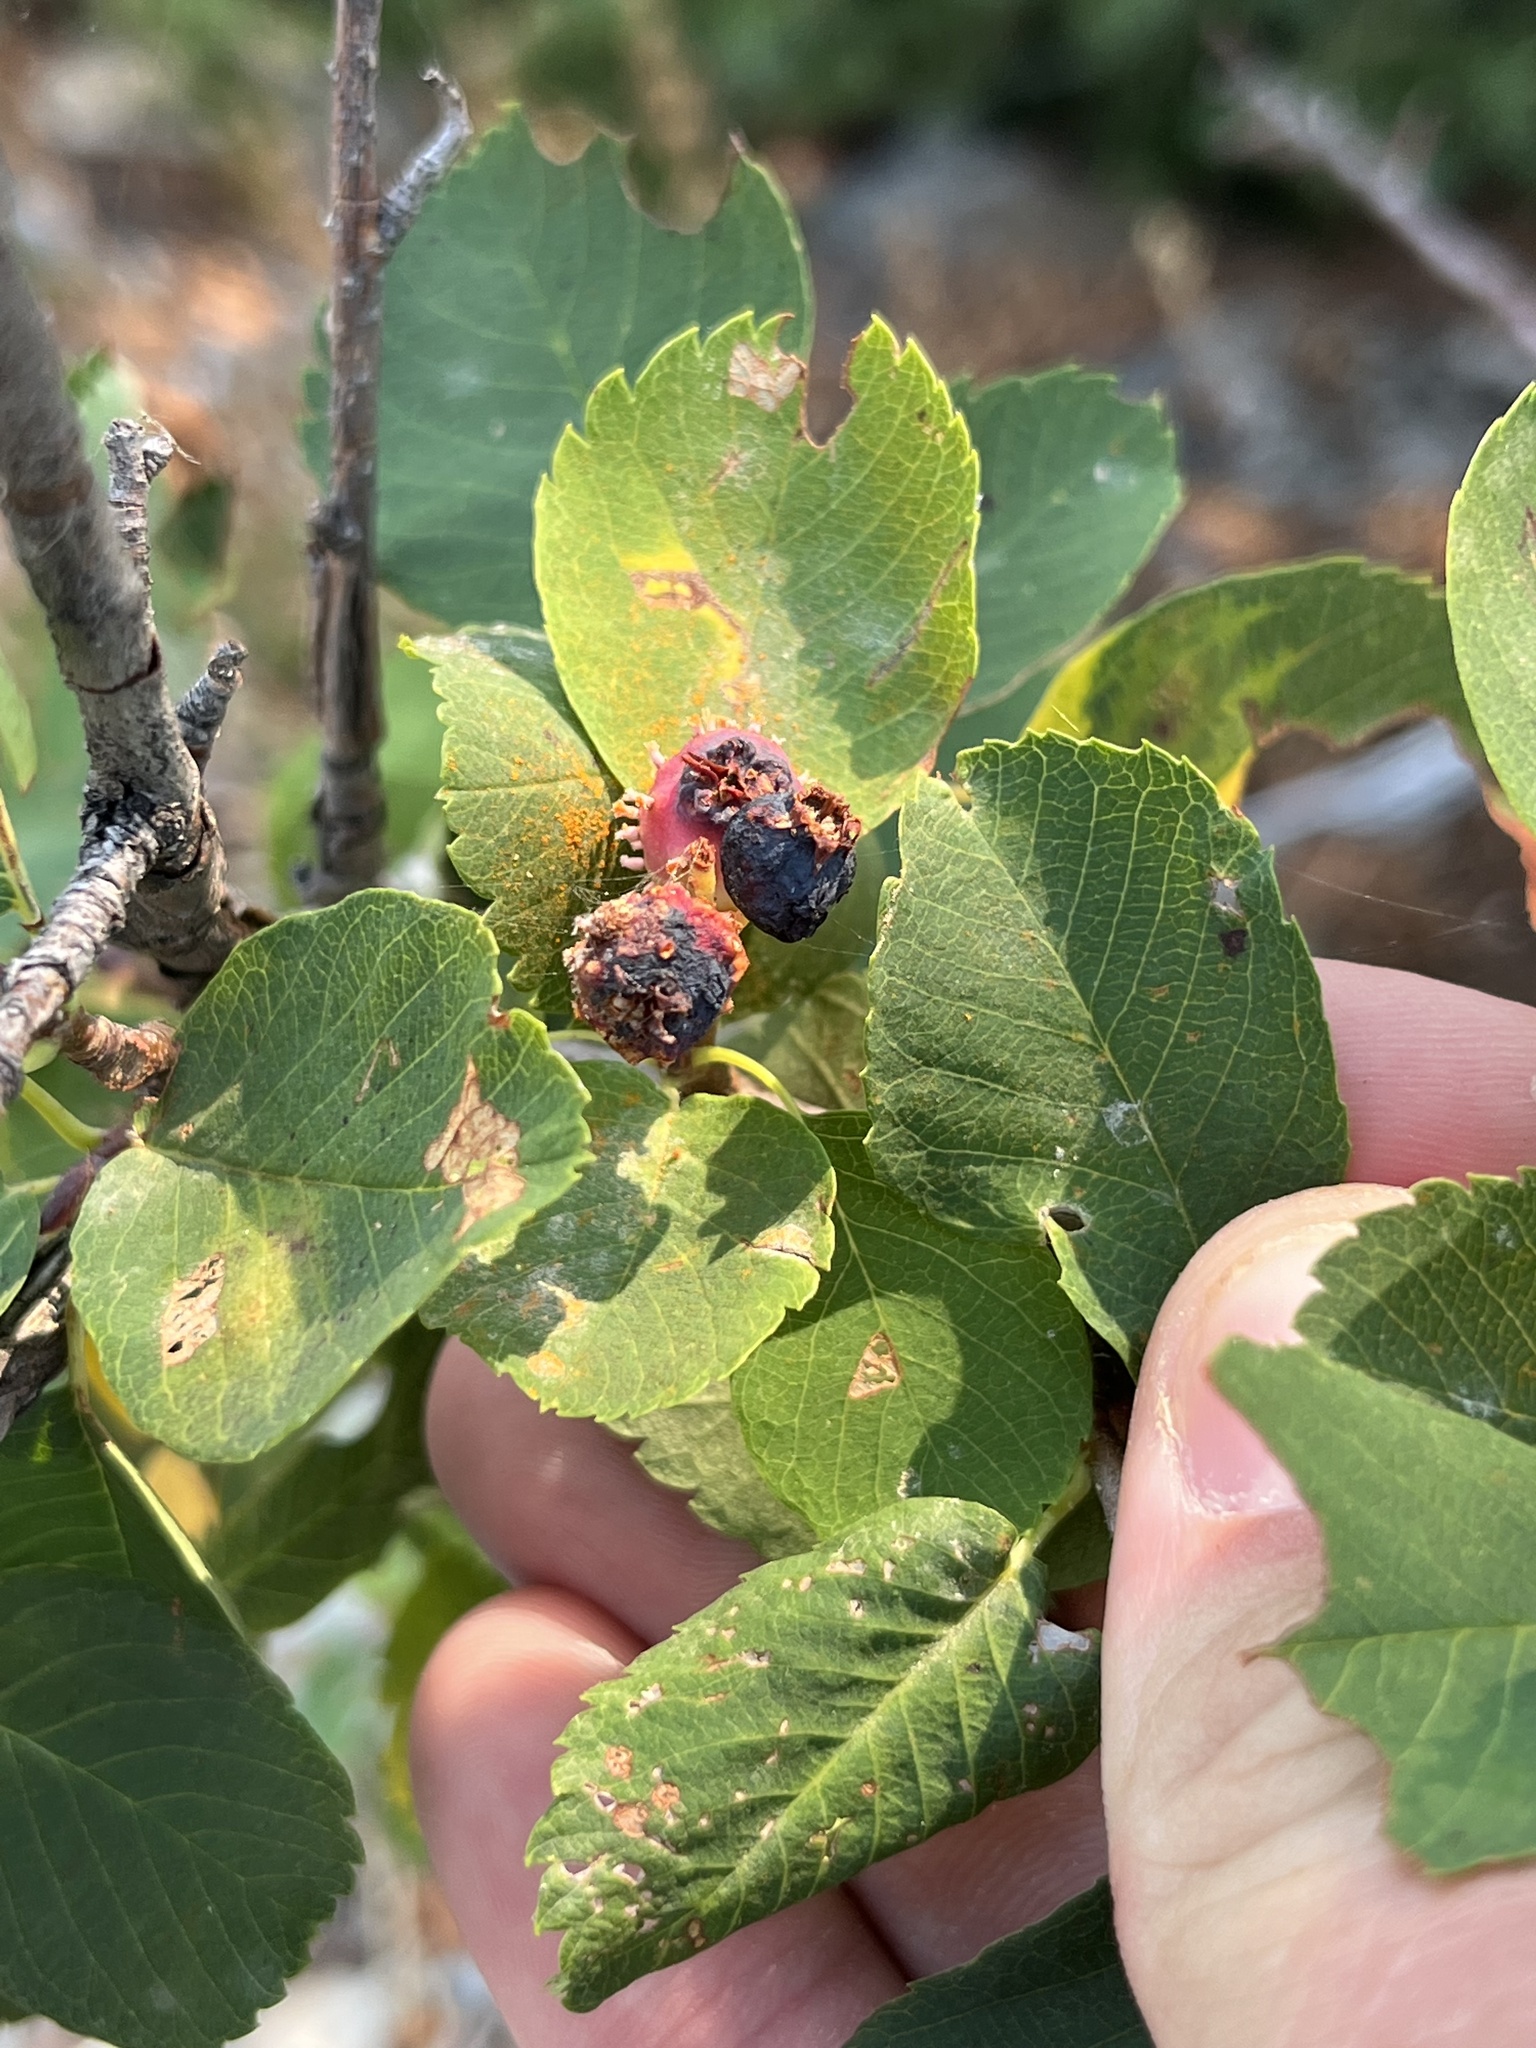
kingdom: Plantae
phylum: Tracheophyta
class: Magnoliopsida
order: Rosales
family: Rosaceae
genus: Amelanchier
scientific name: Amelanchier alnifolia
